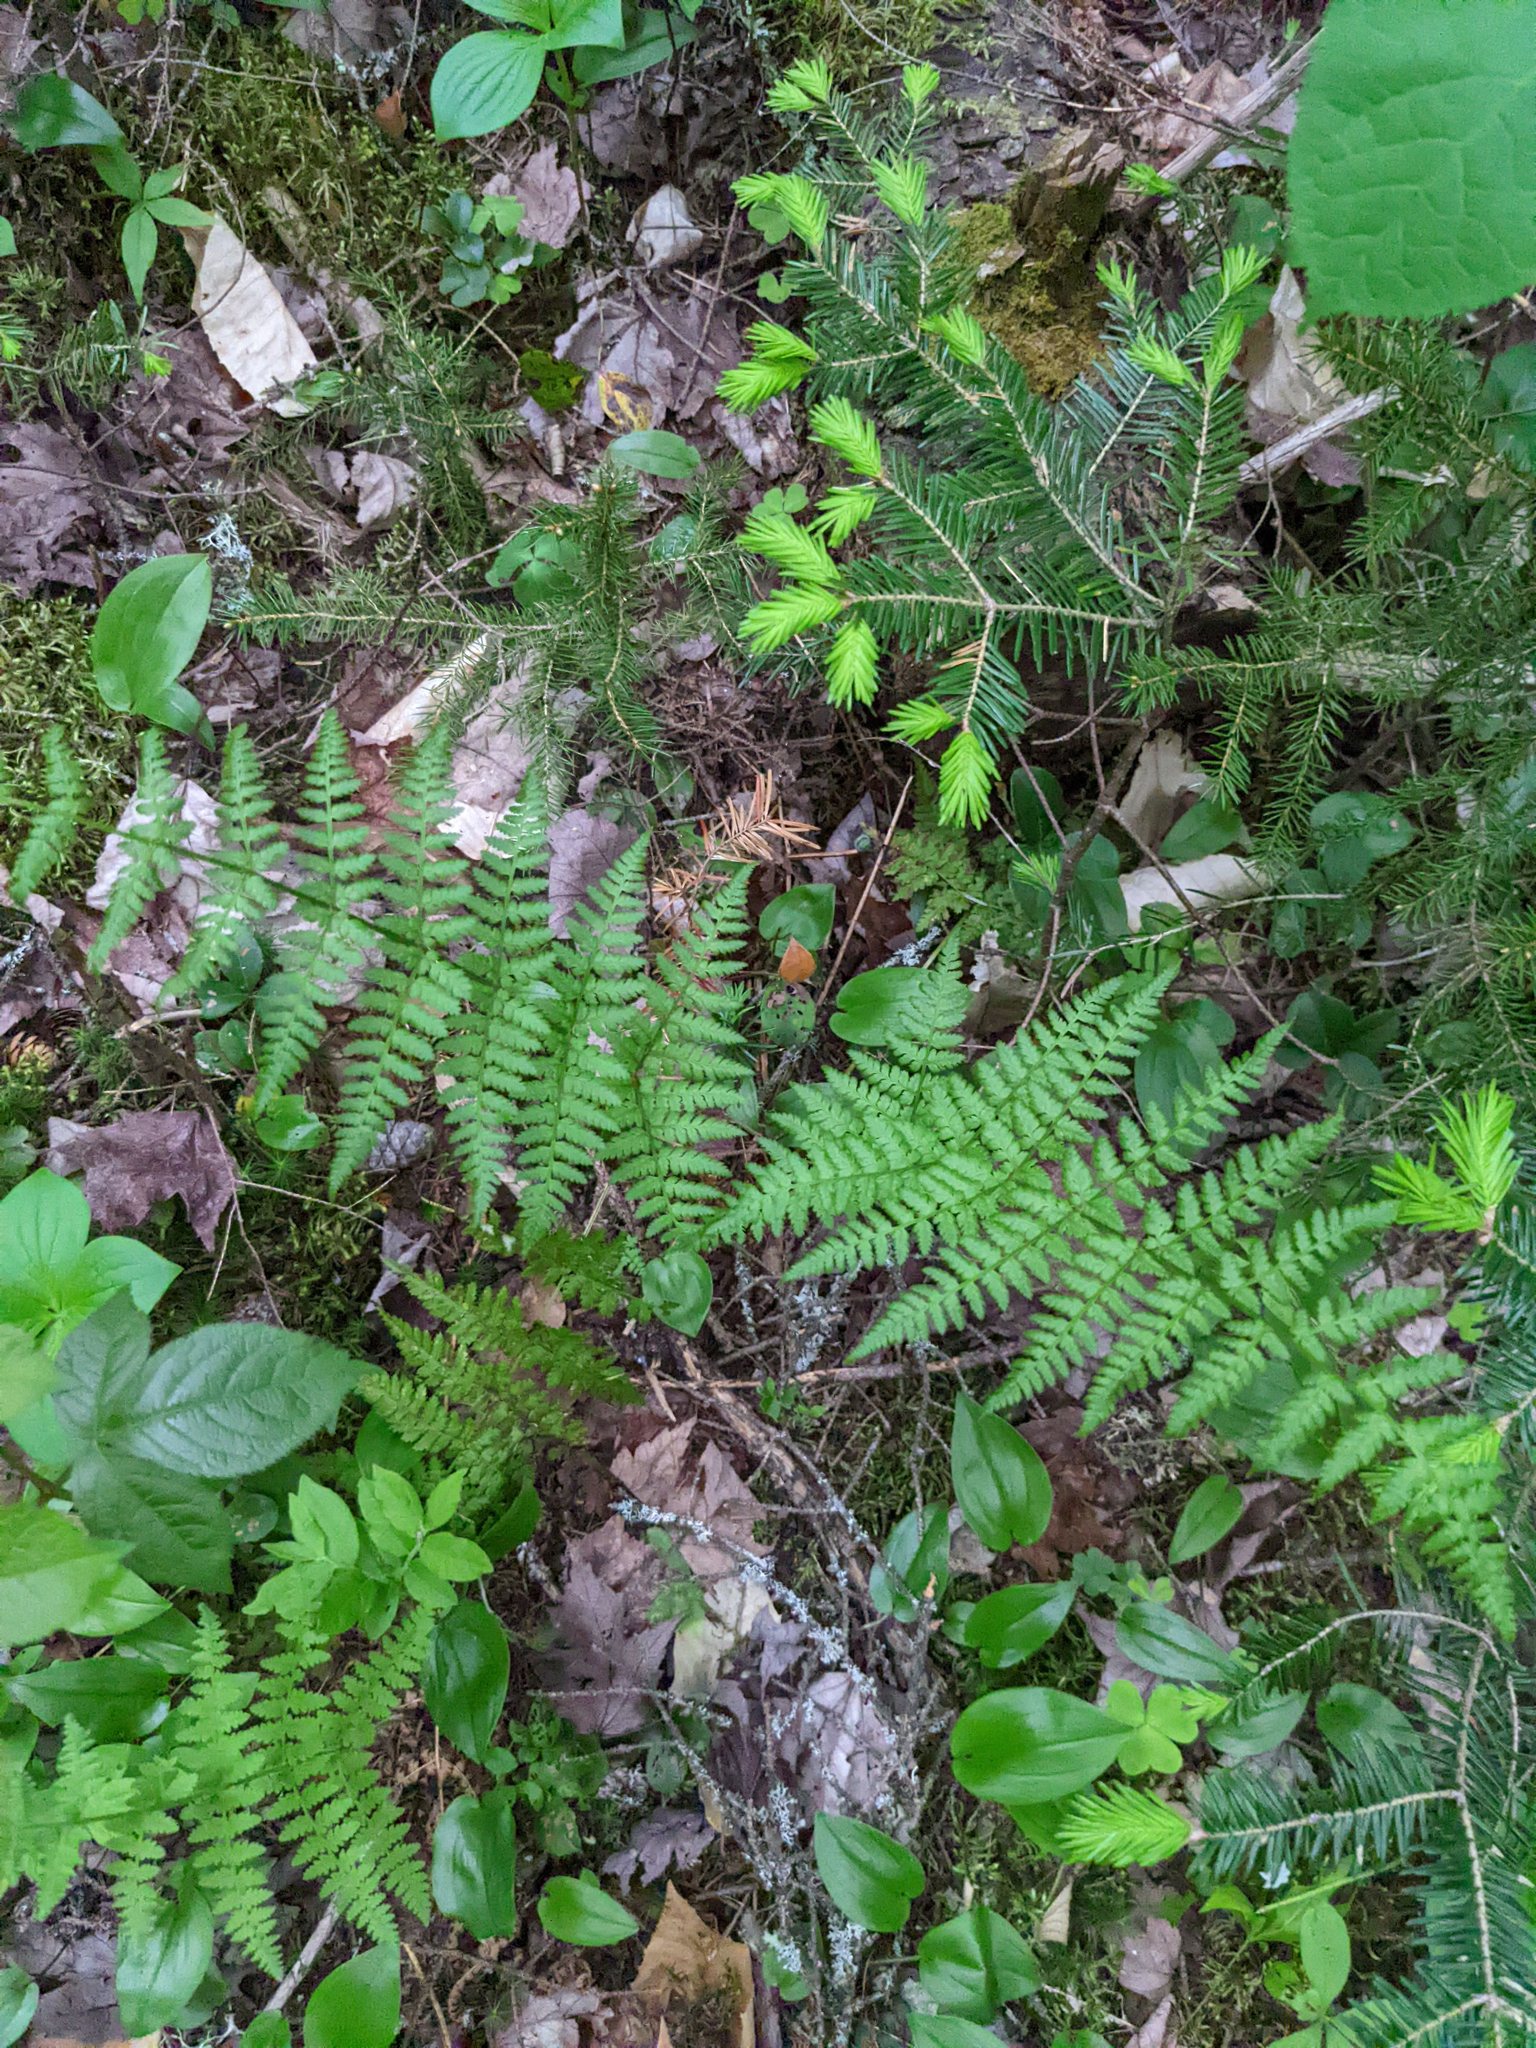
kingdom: Plantae
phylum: Tracheophyta
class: Polypodiopsida
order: Polypodiales
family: Dryopteridaceae
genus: Dryopteris
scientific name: Dryopteris intermedia
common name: Evergreen wood fern
